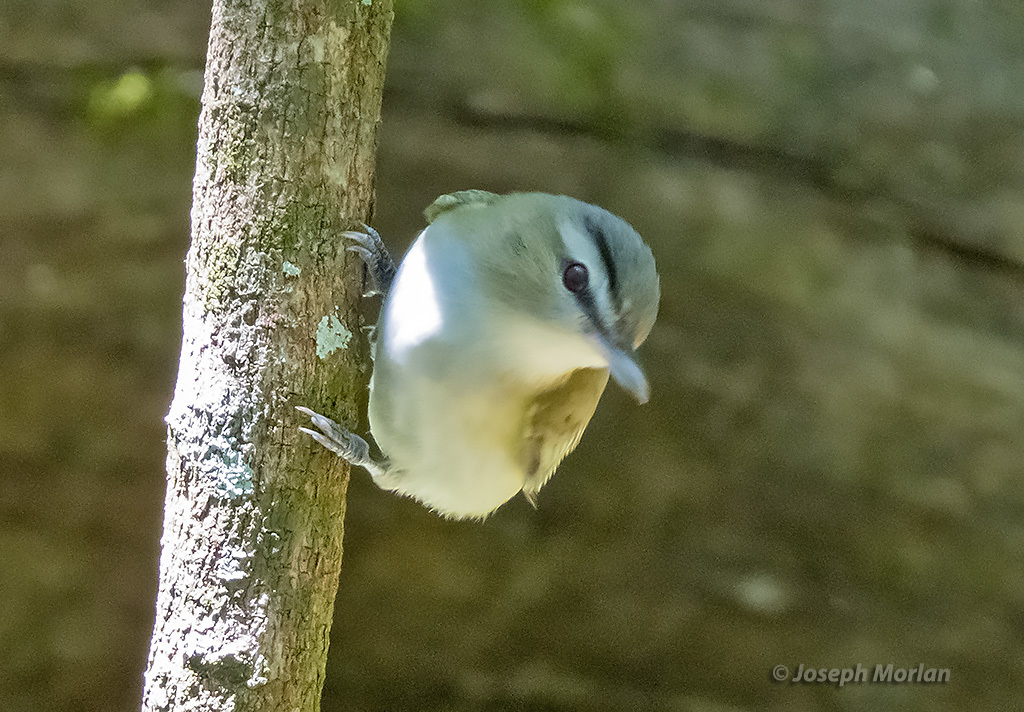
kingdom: Animalia
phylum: Chordata
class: Aves
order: Passeriformes
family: Vireonidae
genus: Vireo
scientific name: Vireo olivaceus
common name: Red-eyed vireo
